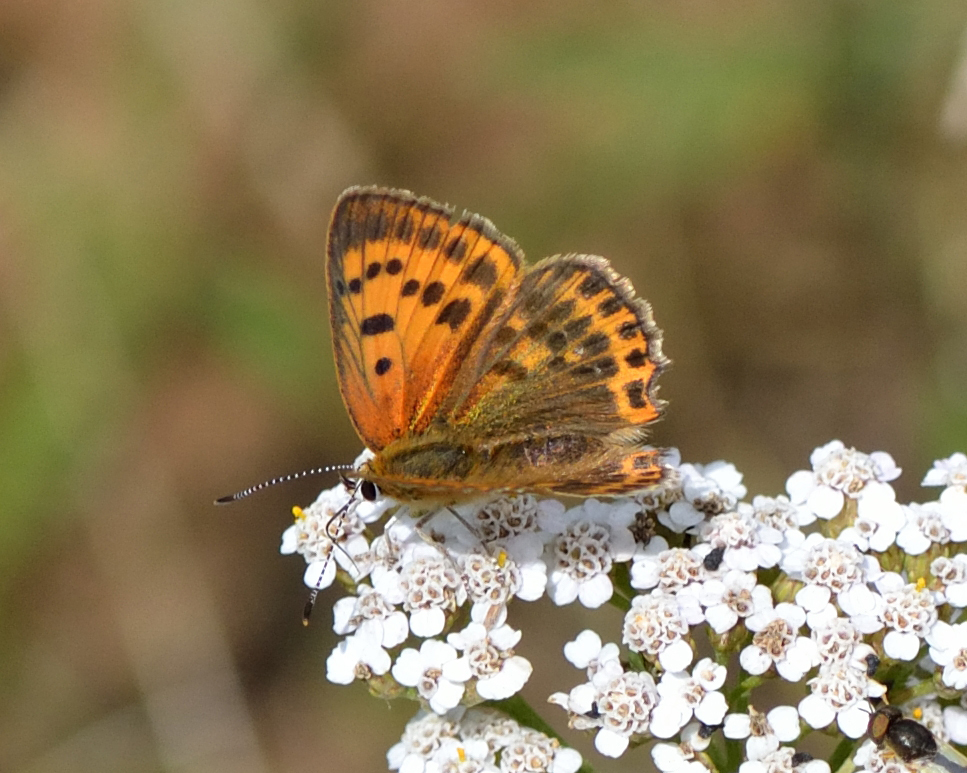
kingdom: Animalia
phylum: Arthropoda
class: Insecta
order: Lepidoptera
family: Lycaenidae
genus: Lycaena
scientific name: Lycaena virgaureae
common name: Scarce copper
